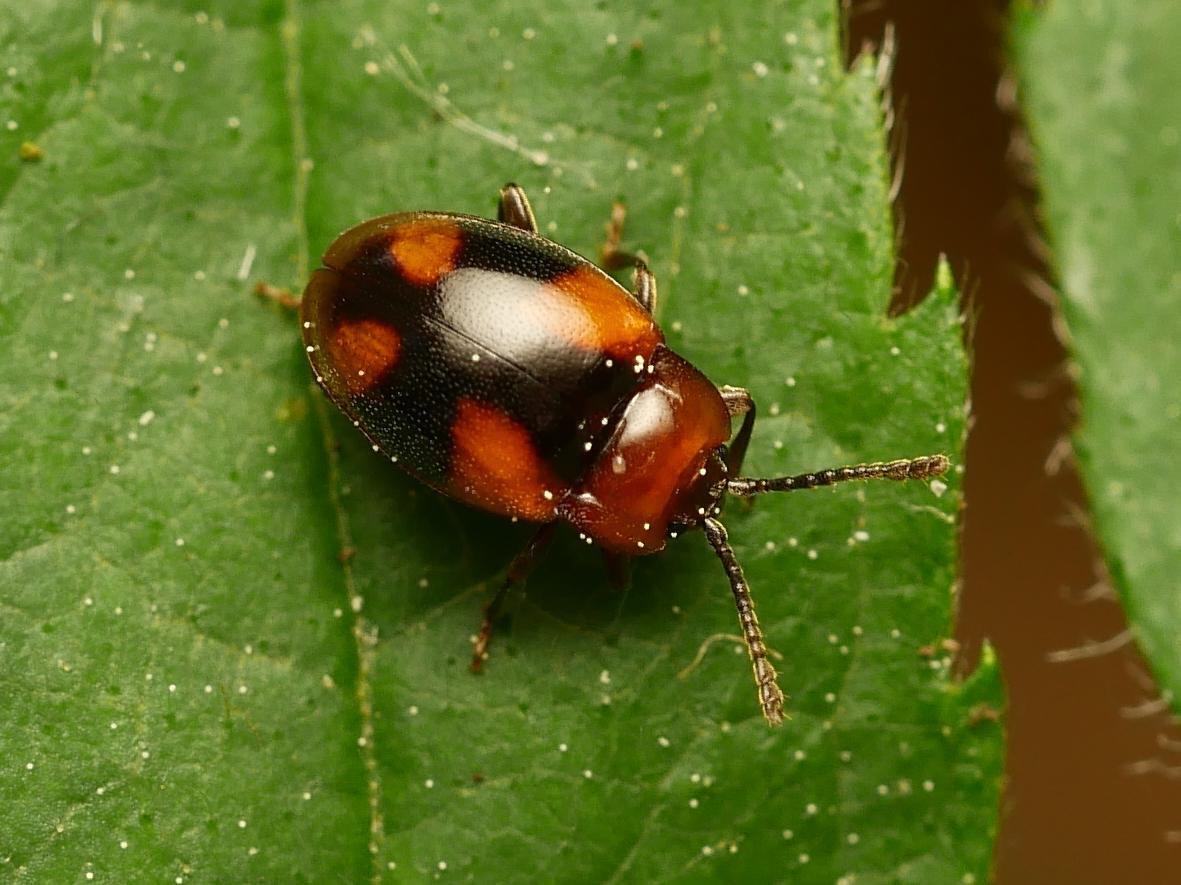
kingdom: Animalia
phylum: Arthropoda
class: Insecta
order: Coleoptera
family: Endomychidae
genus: Mycetina
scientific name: Mycetina cruciata
